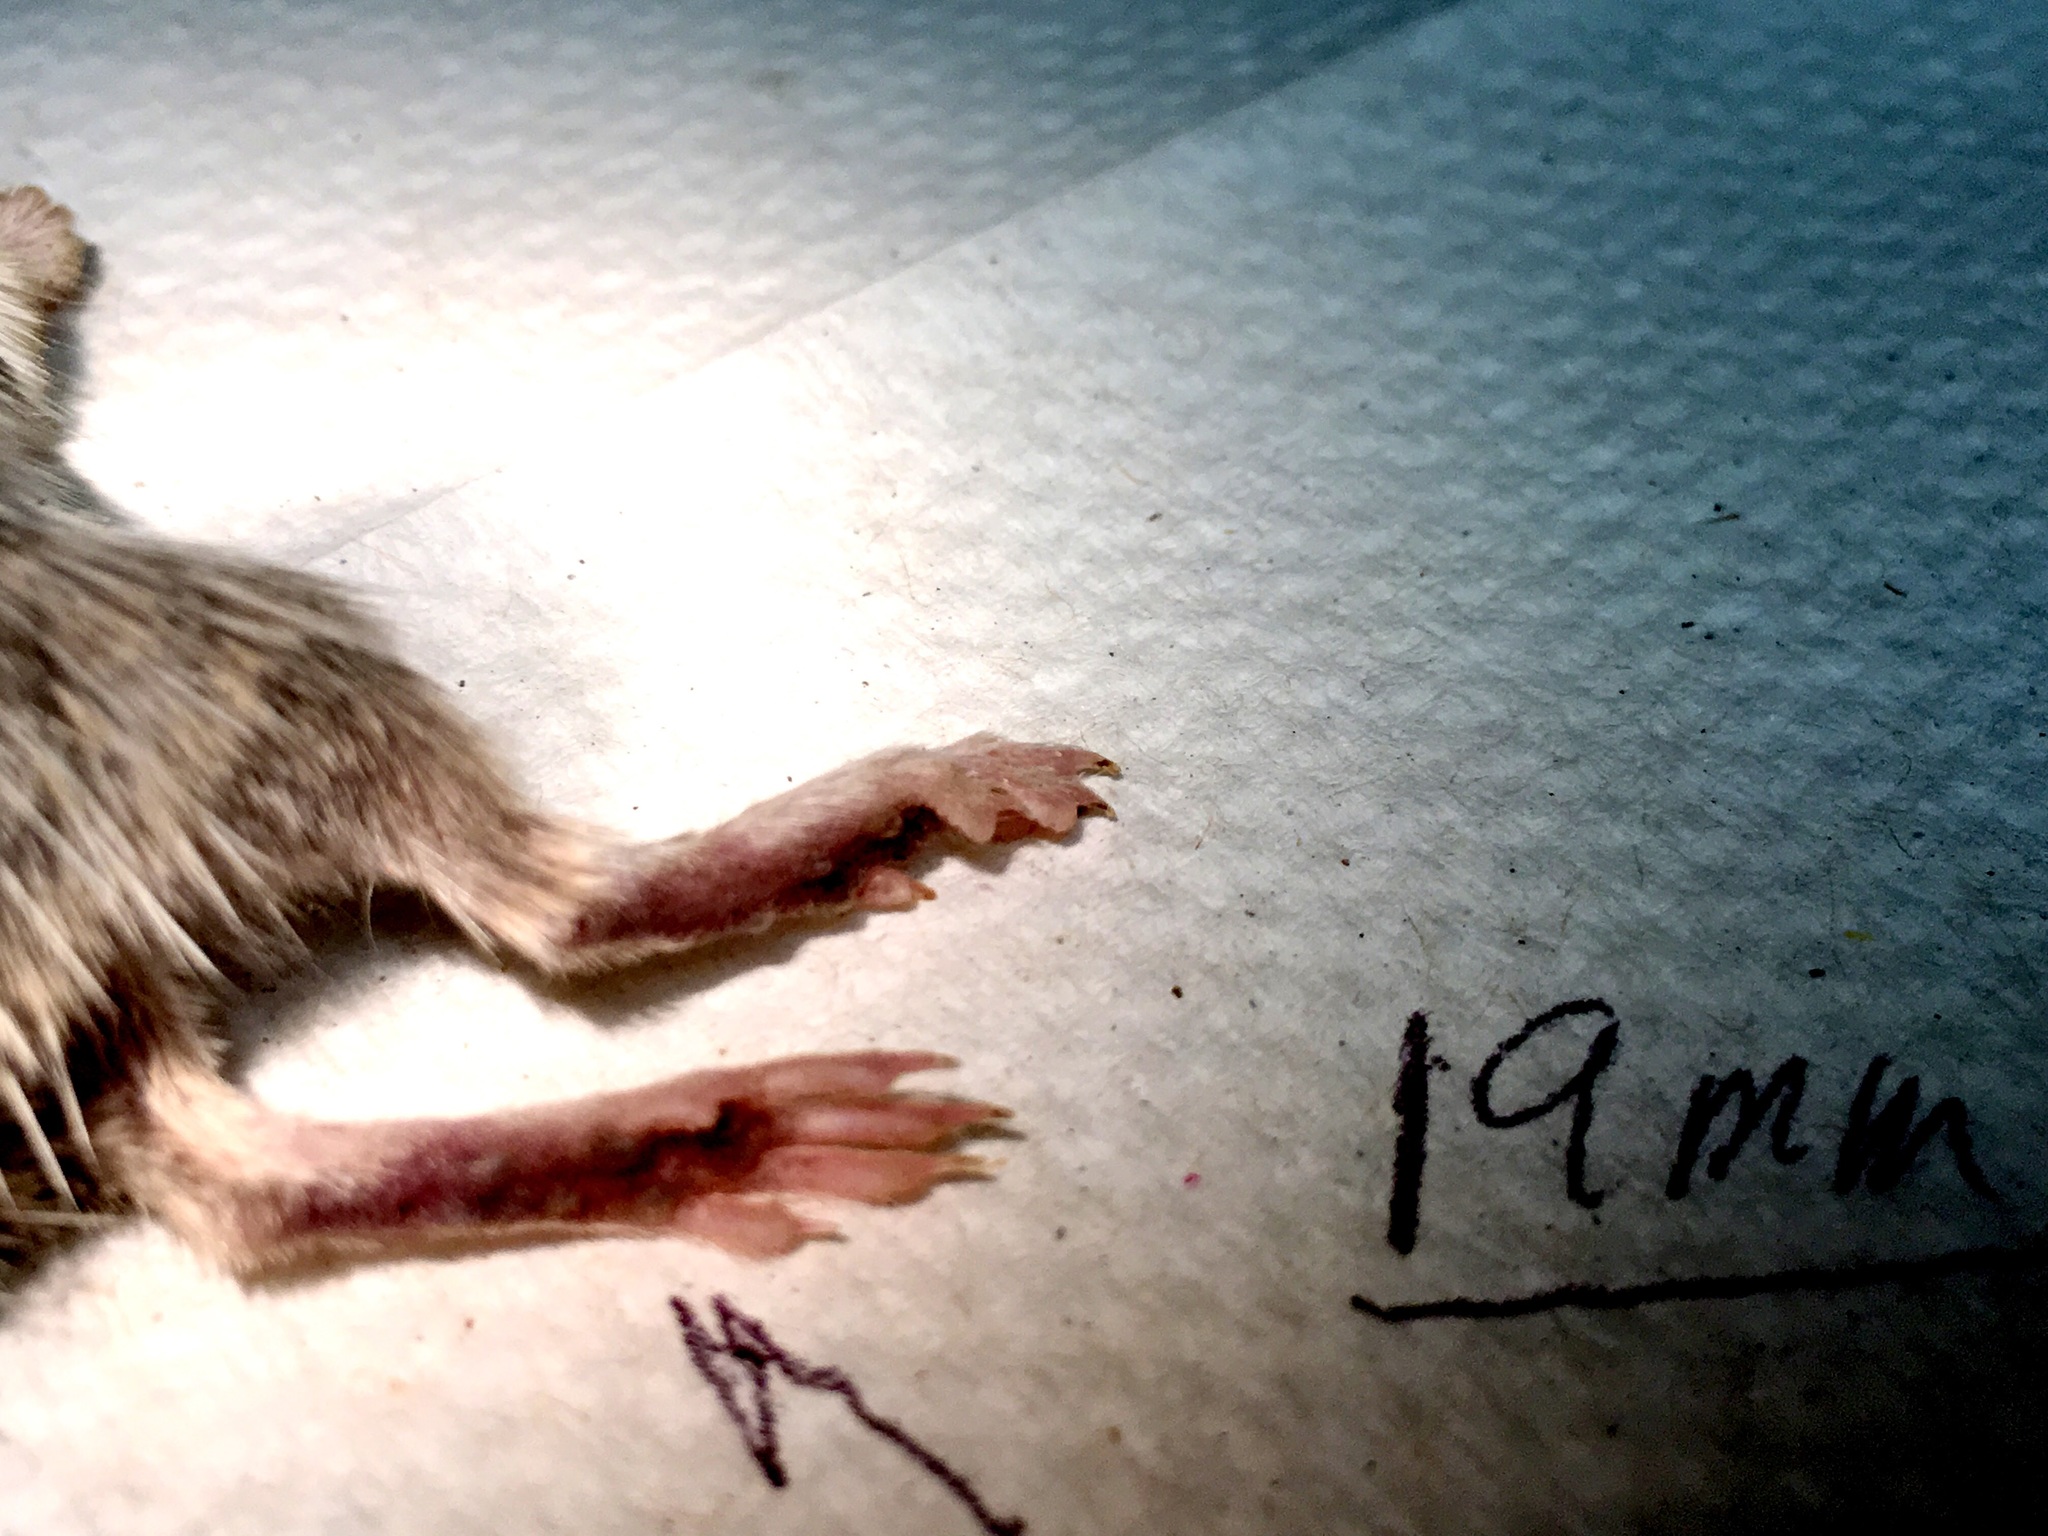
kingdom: Animalia
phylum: Chordata
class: Mammalia
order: Rodentia
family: Heteromyidae
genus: Chaetodipus
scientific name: Chaetodipus fallax
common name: San diego pocket mouse
